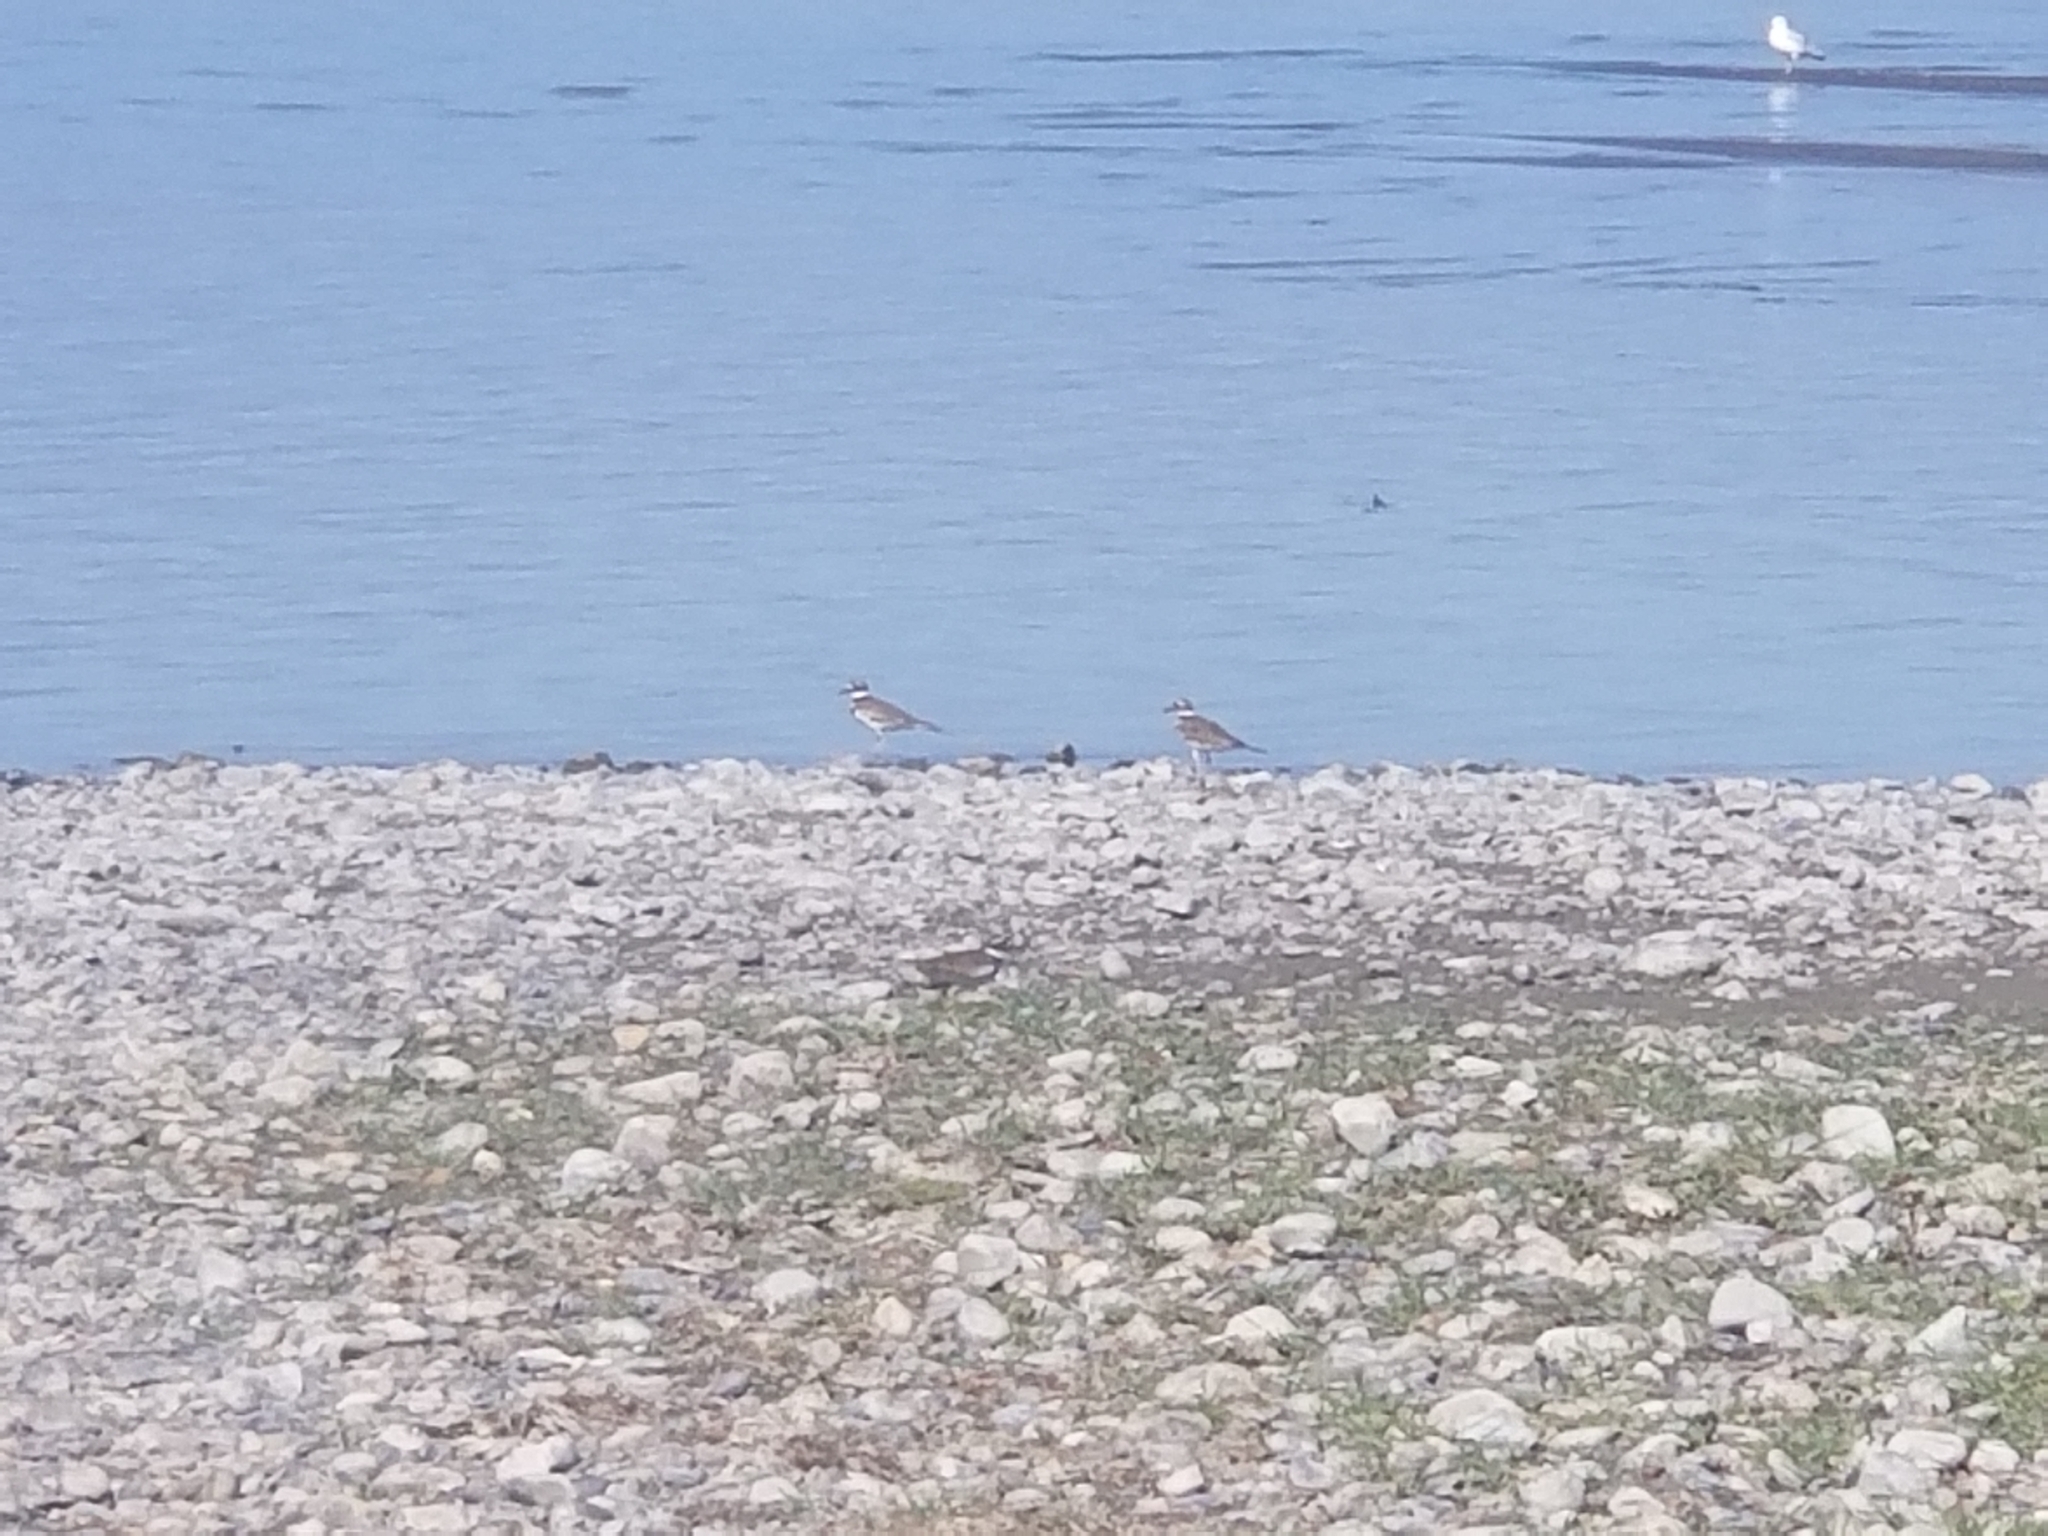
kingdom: Animalia
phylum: Chordata
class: Aves
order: Charadriiformes
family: Charadriidae
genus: Charadrius
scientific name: Charadrius vociferus
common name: Killdeer
